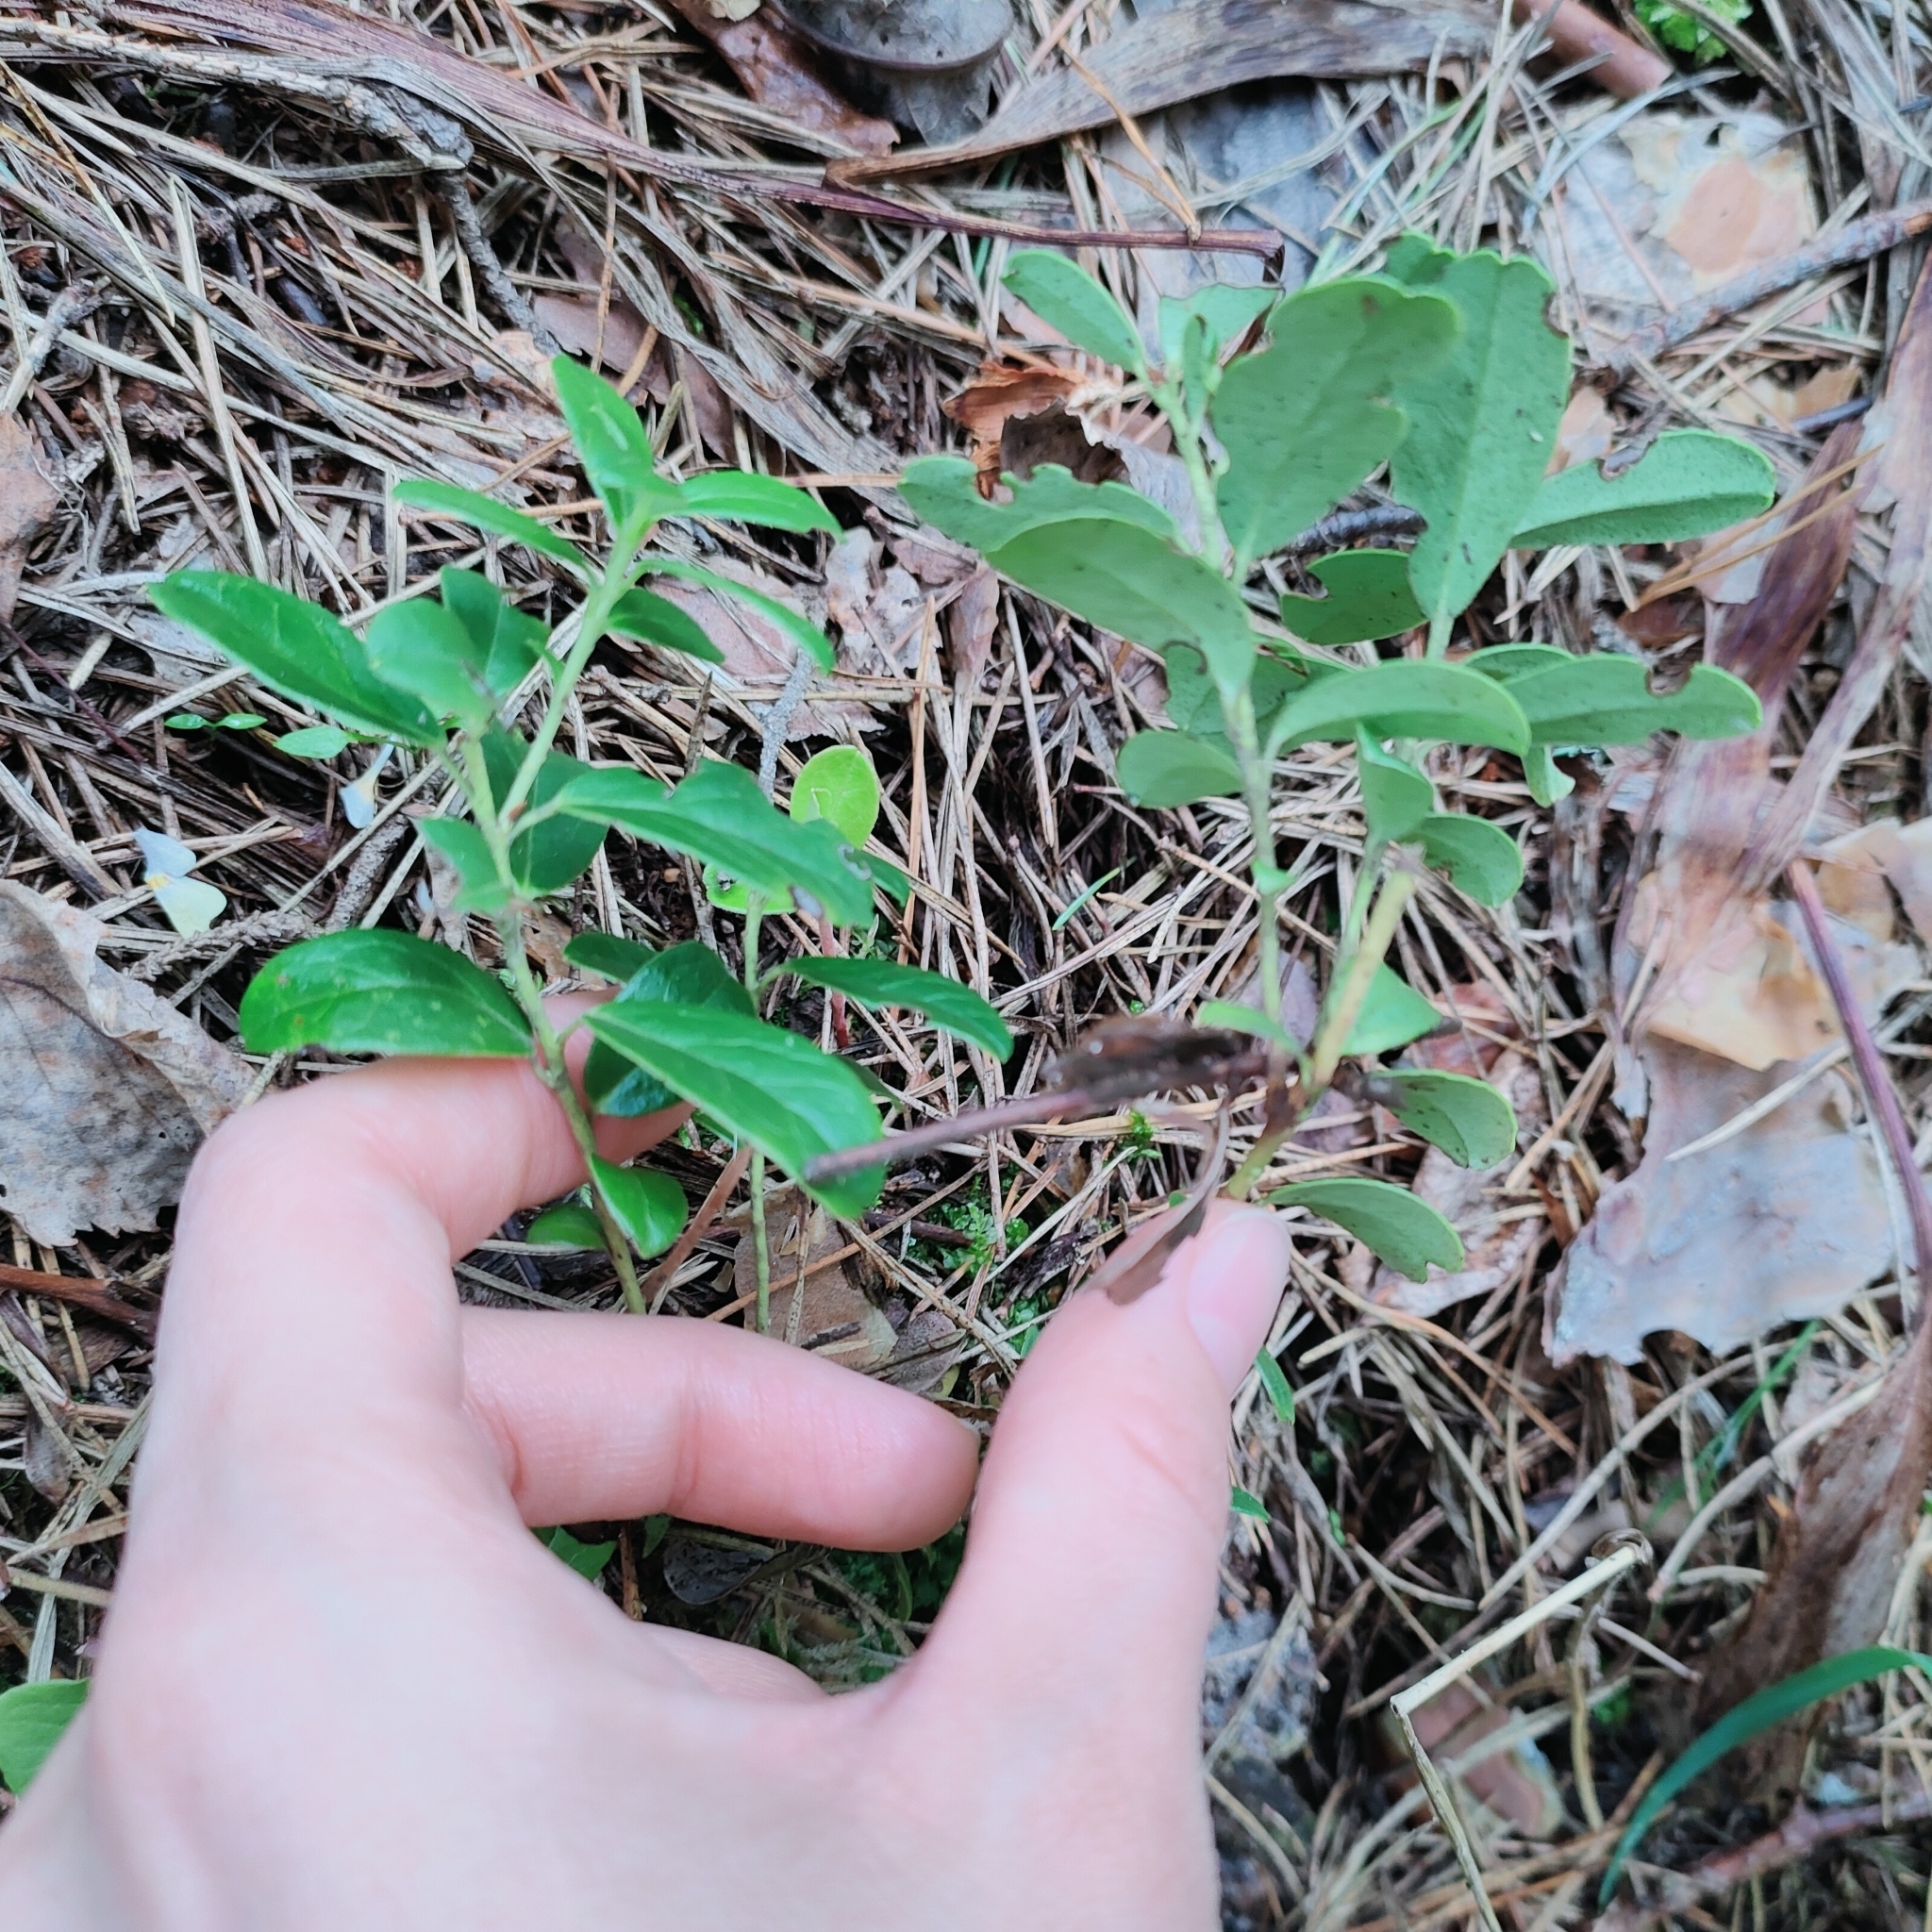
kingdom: Plantae
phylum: Tracheophyta
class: Magnoliopsida
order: Ericales
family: Ericaceae
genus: Vaccinium
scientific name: Vaccinium vitis-idaea
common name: Cowberry
